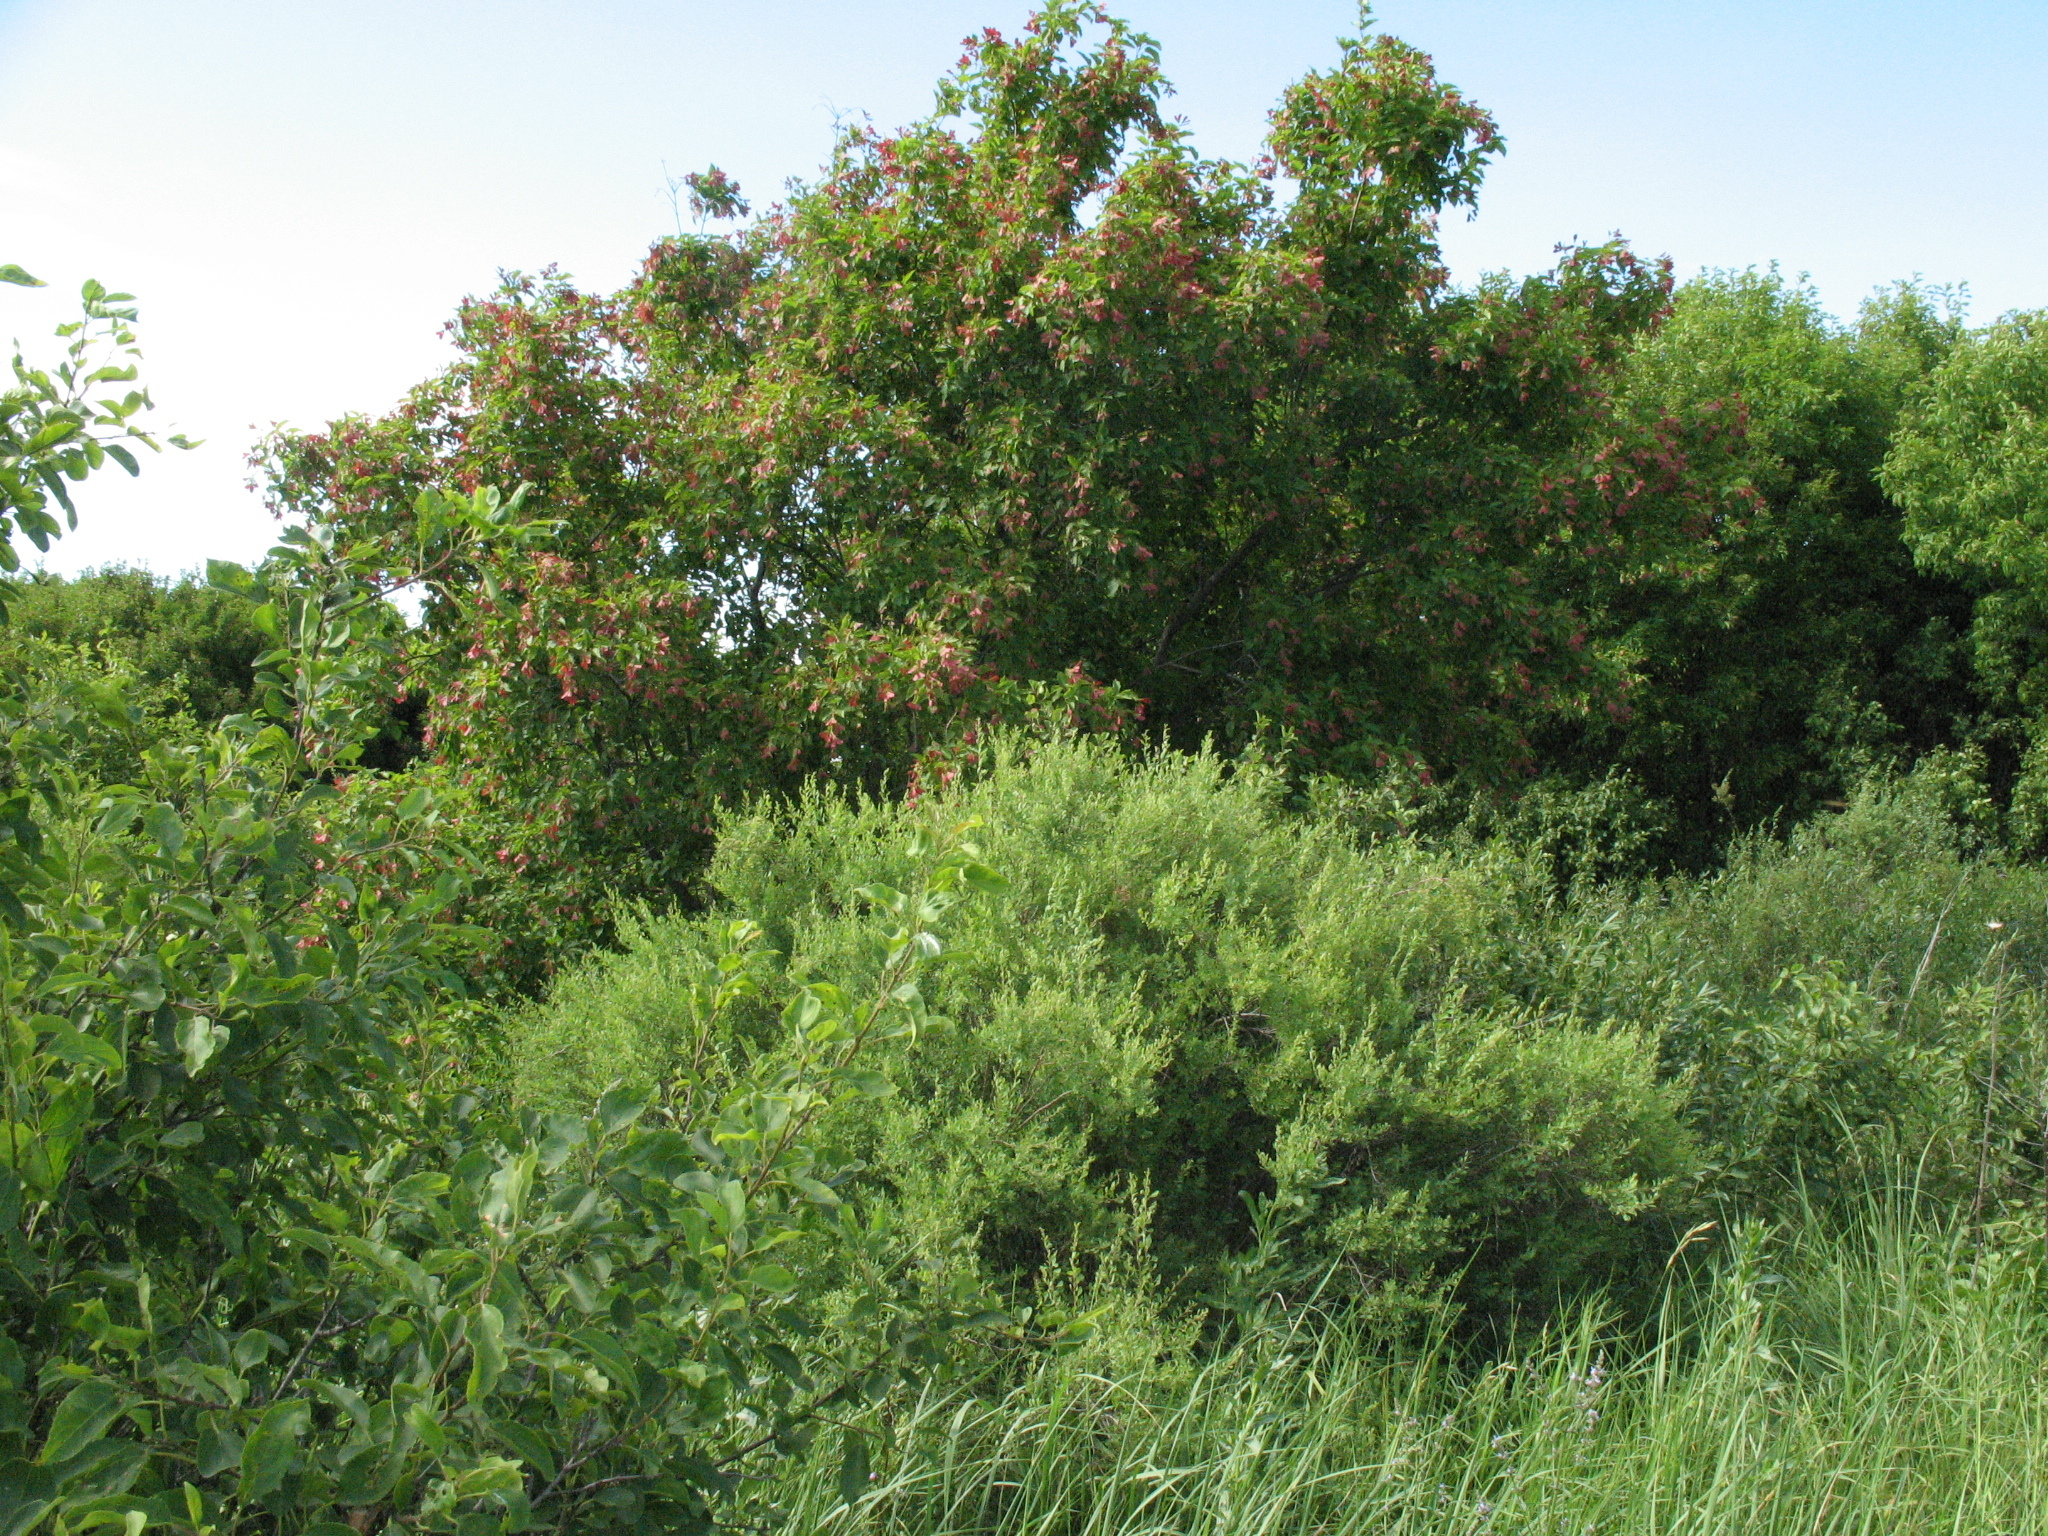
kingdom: Plantae
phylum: Tracheophyta
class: Magnoliopsida
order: Sapindales
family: Sapindaceae
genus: Acer
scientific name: Acer tataricum
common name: Tartar maple
